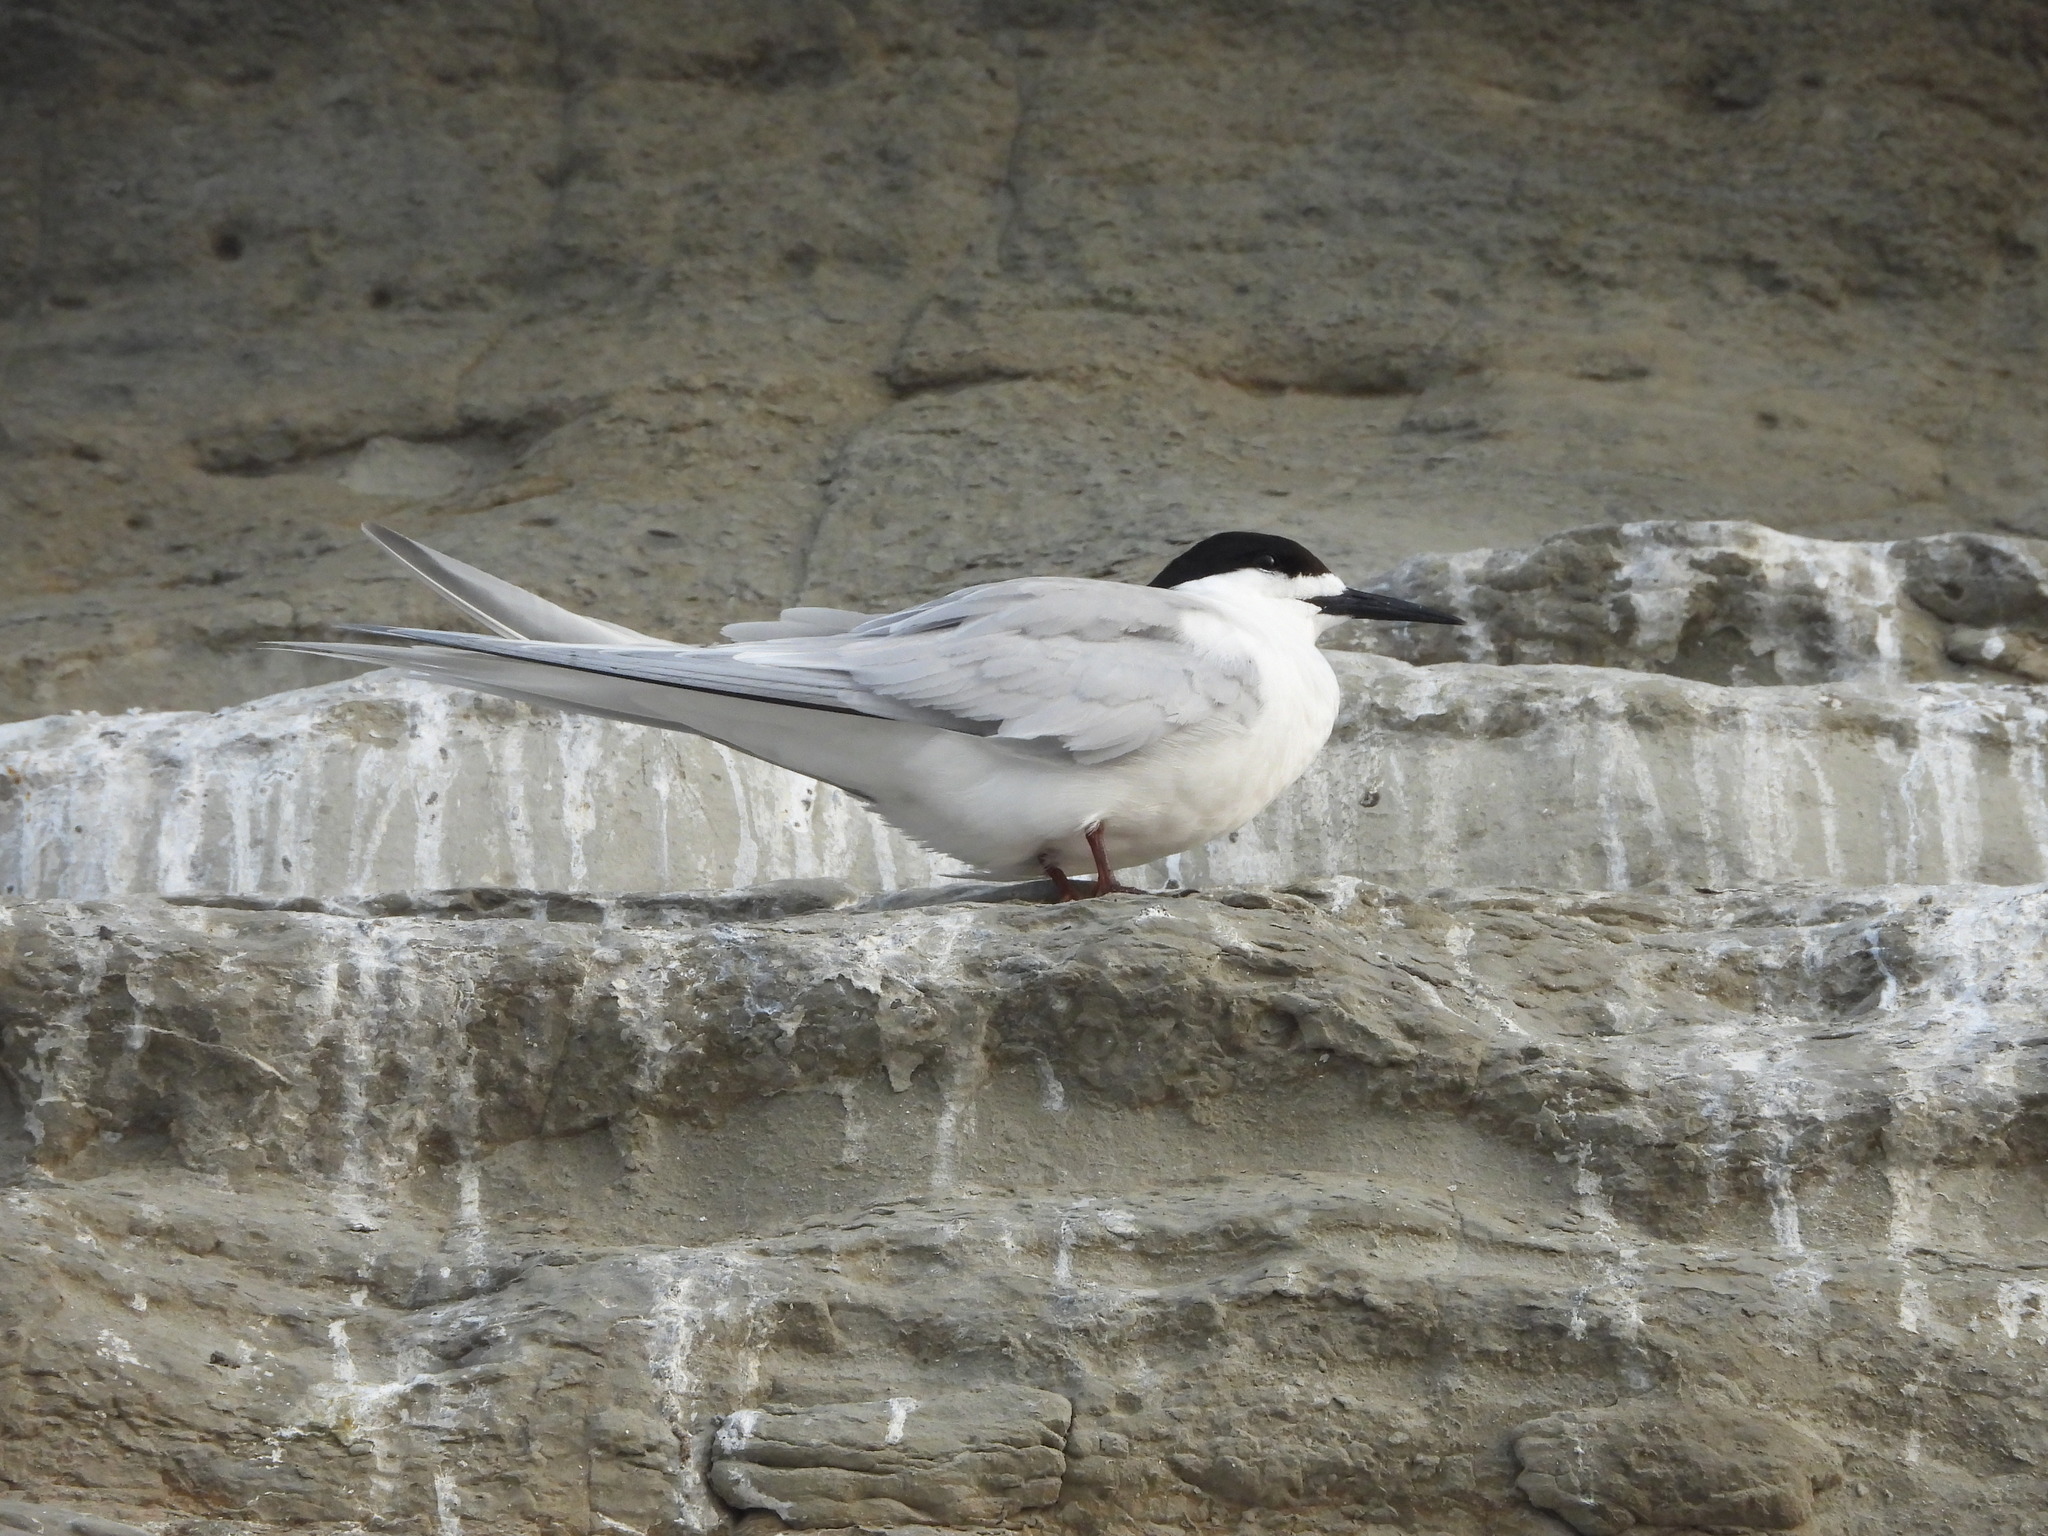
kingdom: Animalia
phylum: Chordata
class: Aves
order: Charadriiformes
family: Laridae
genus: Sterna
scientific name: Sterna striata
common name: White-fronted tern
